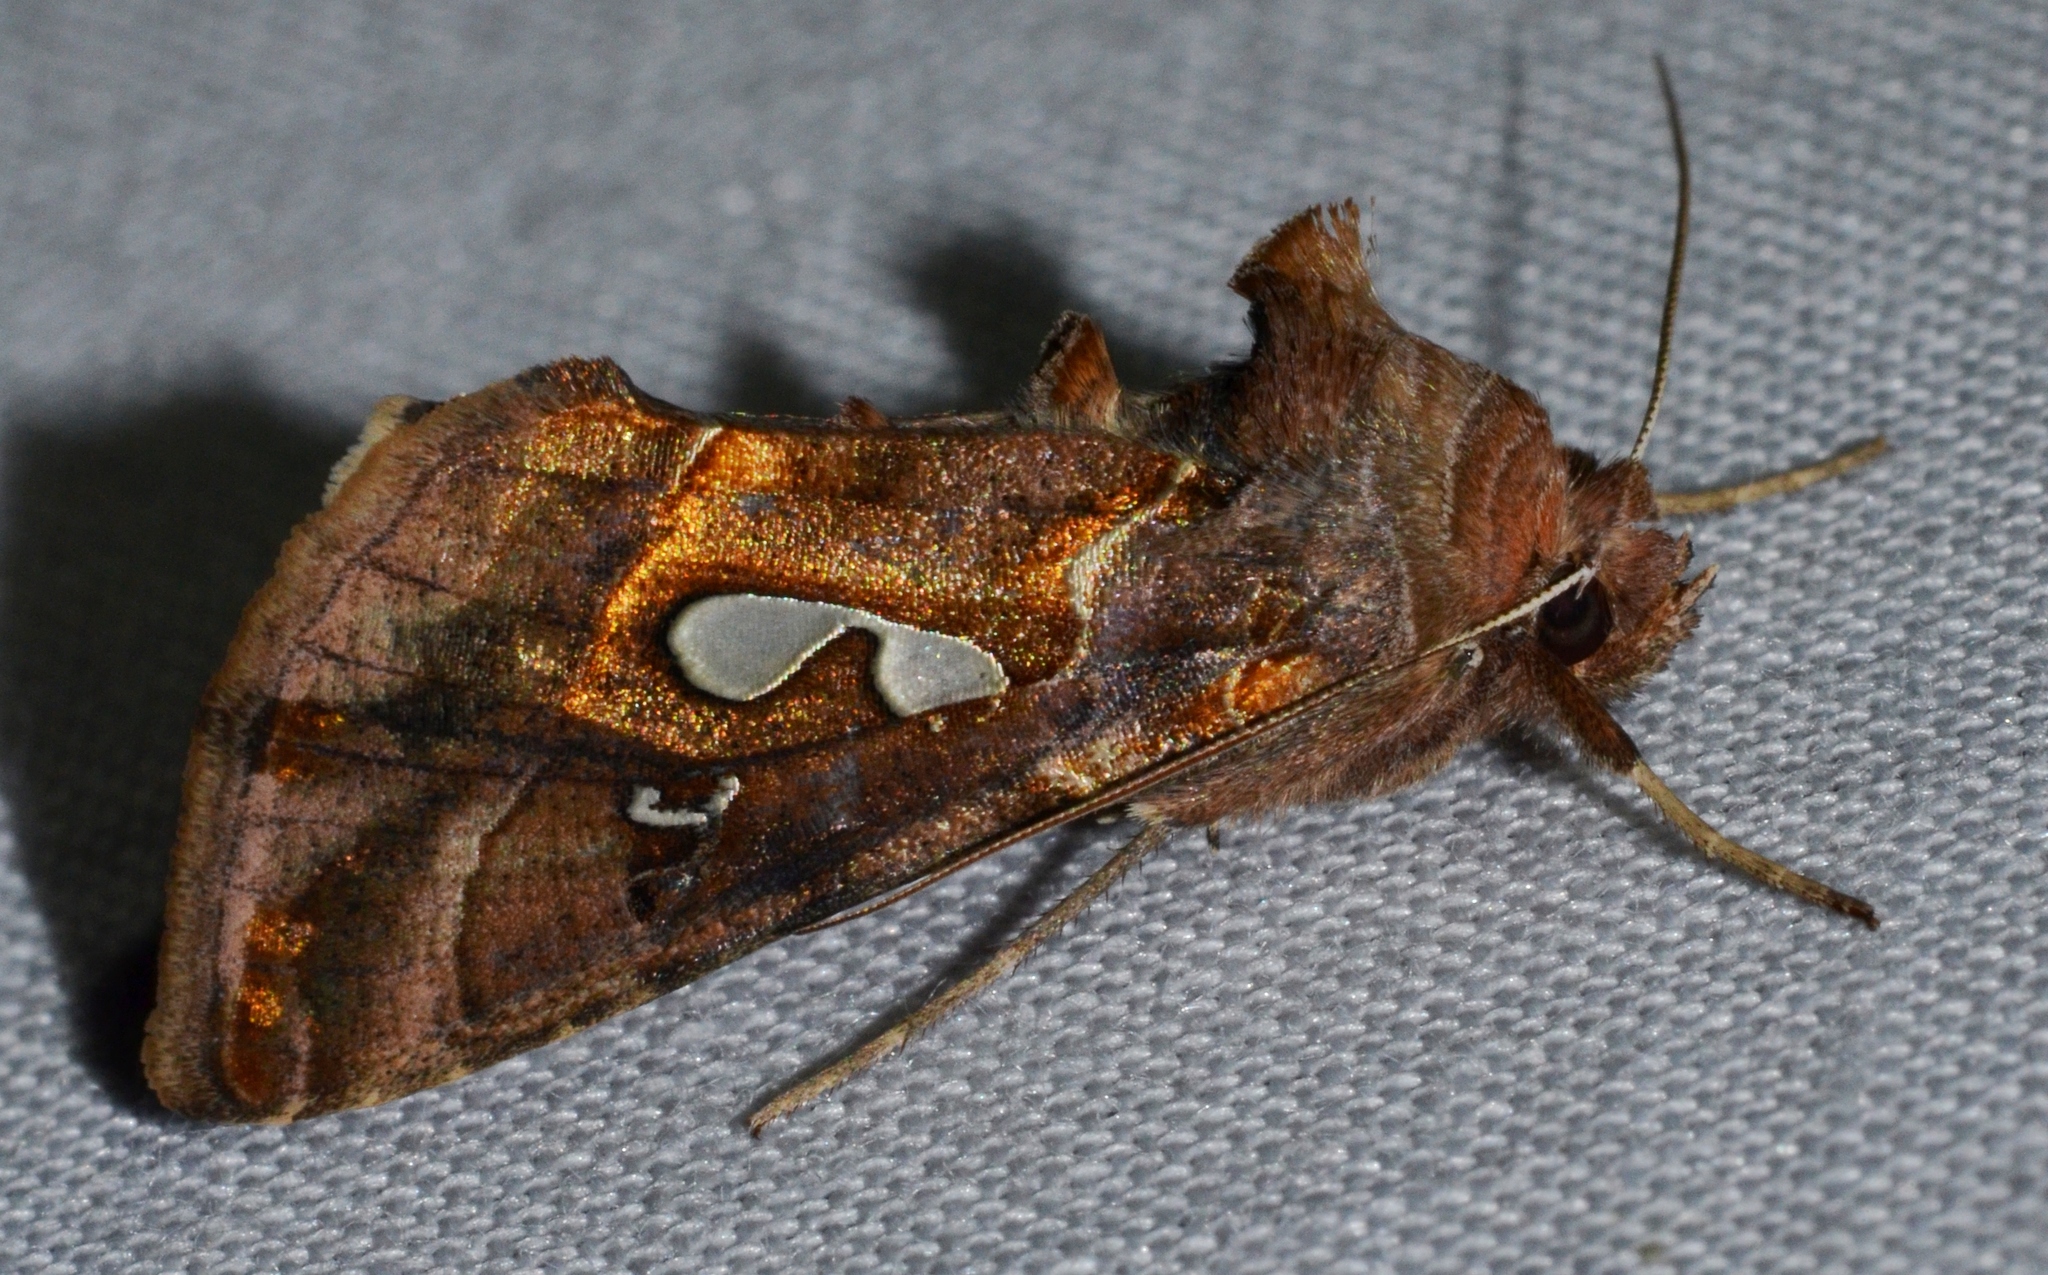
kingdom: Animalia
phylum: Arthropoda
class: Insecta
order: Lepidoptera
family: Noctuidae
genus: Megalographa
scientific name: Megalographa biloba
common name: Cutworm
